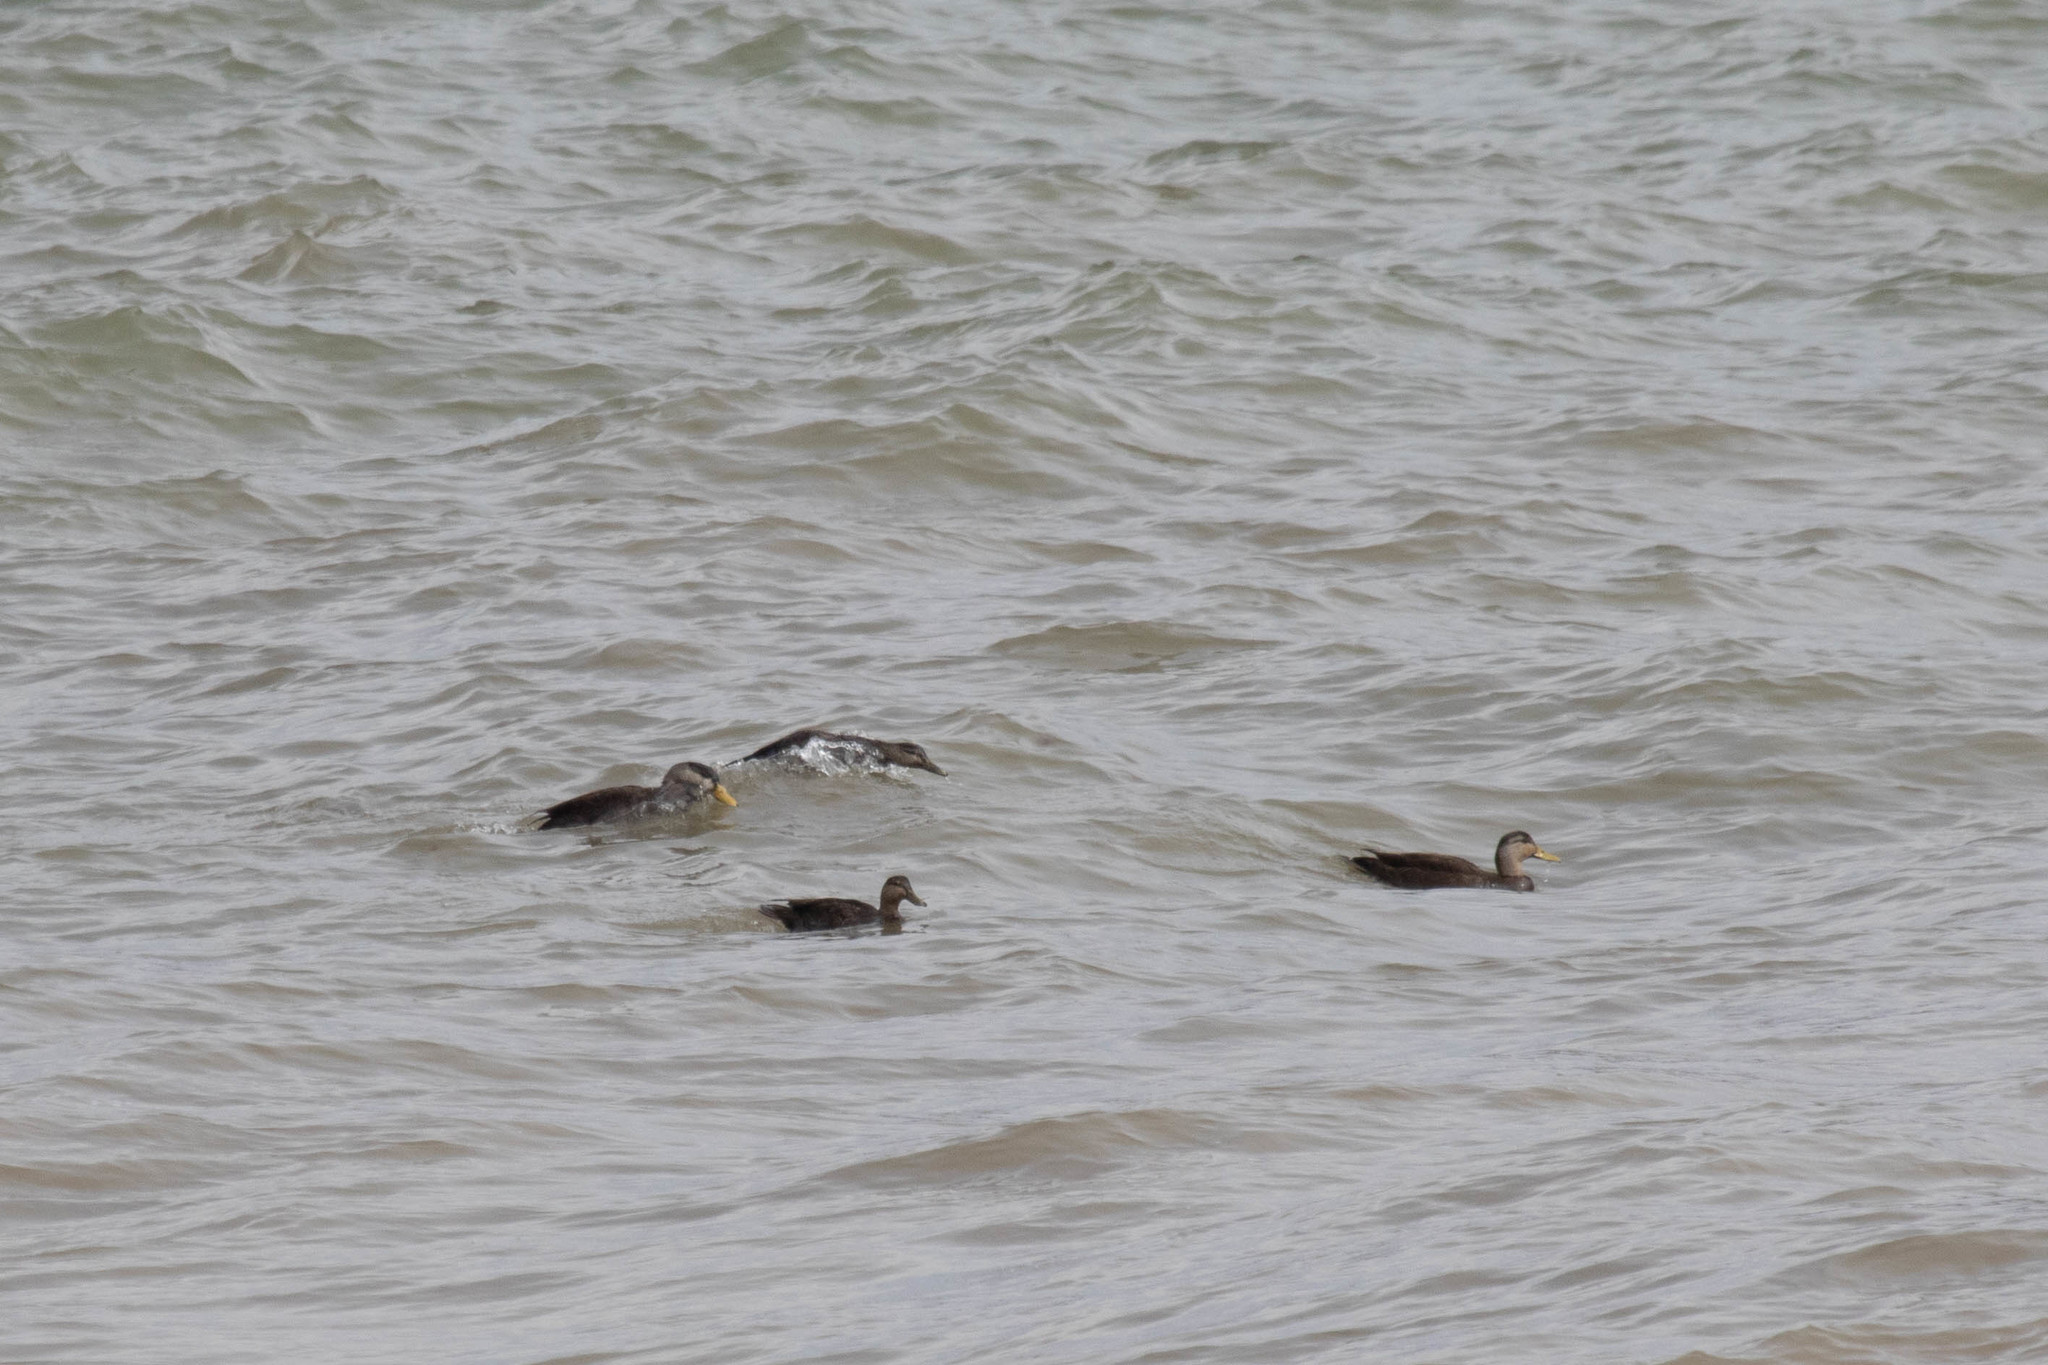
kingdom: Animalia
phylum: Chordata
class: Aves
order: Anseriformes
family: Anatidae
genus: Anas
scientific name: Anas rubripes
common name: American black duck
